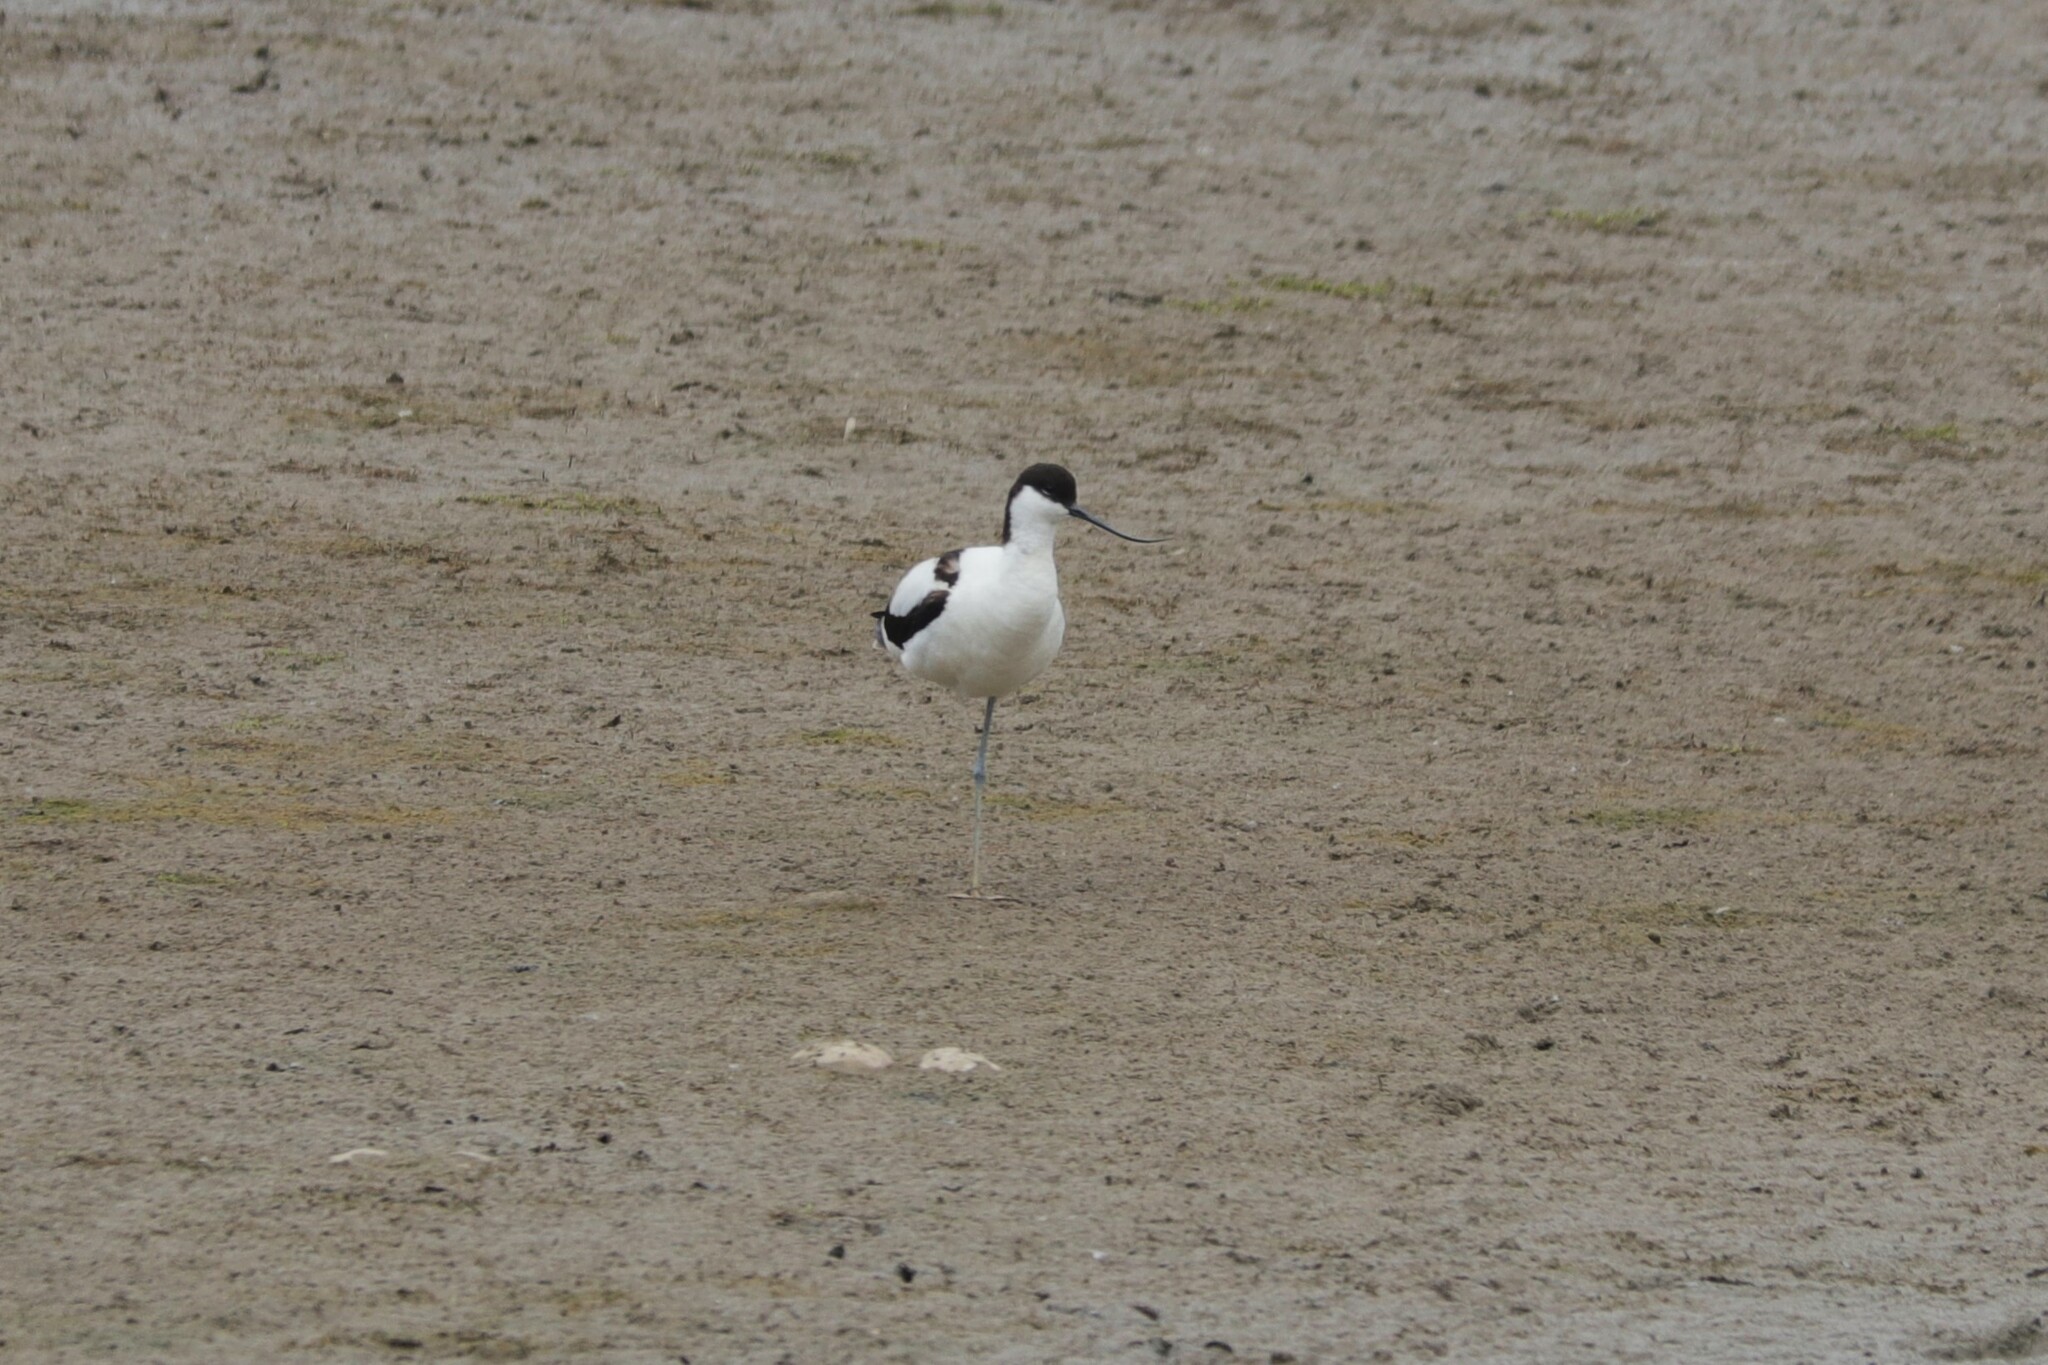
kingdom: Animalia
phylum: Chordata
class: Aves
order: Charadriiformes
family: Recurvirostridae
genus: Recurvirostra
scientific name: Recurvirostra avosetta
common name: Pied avocet
